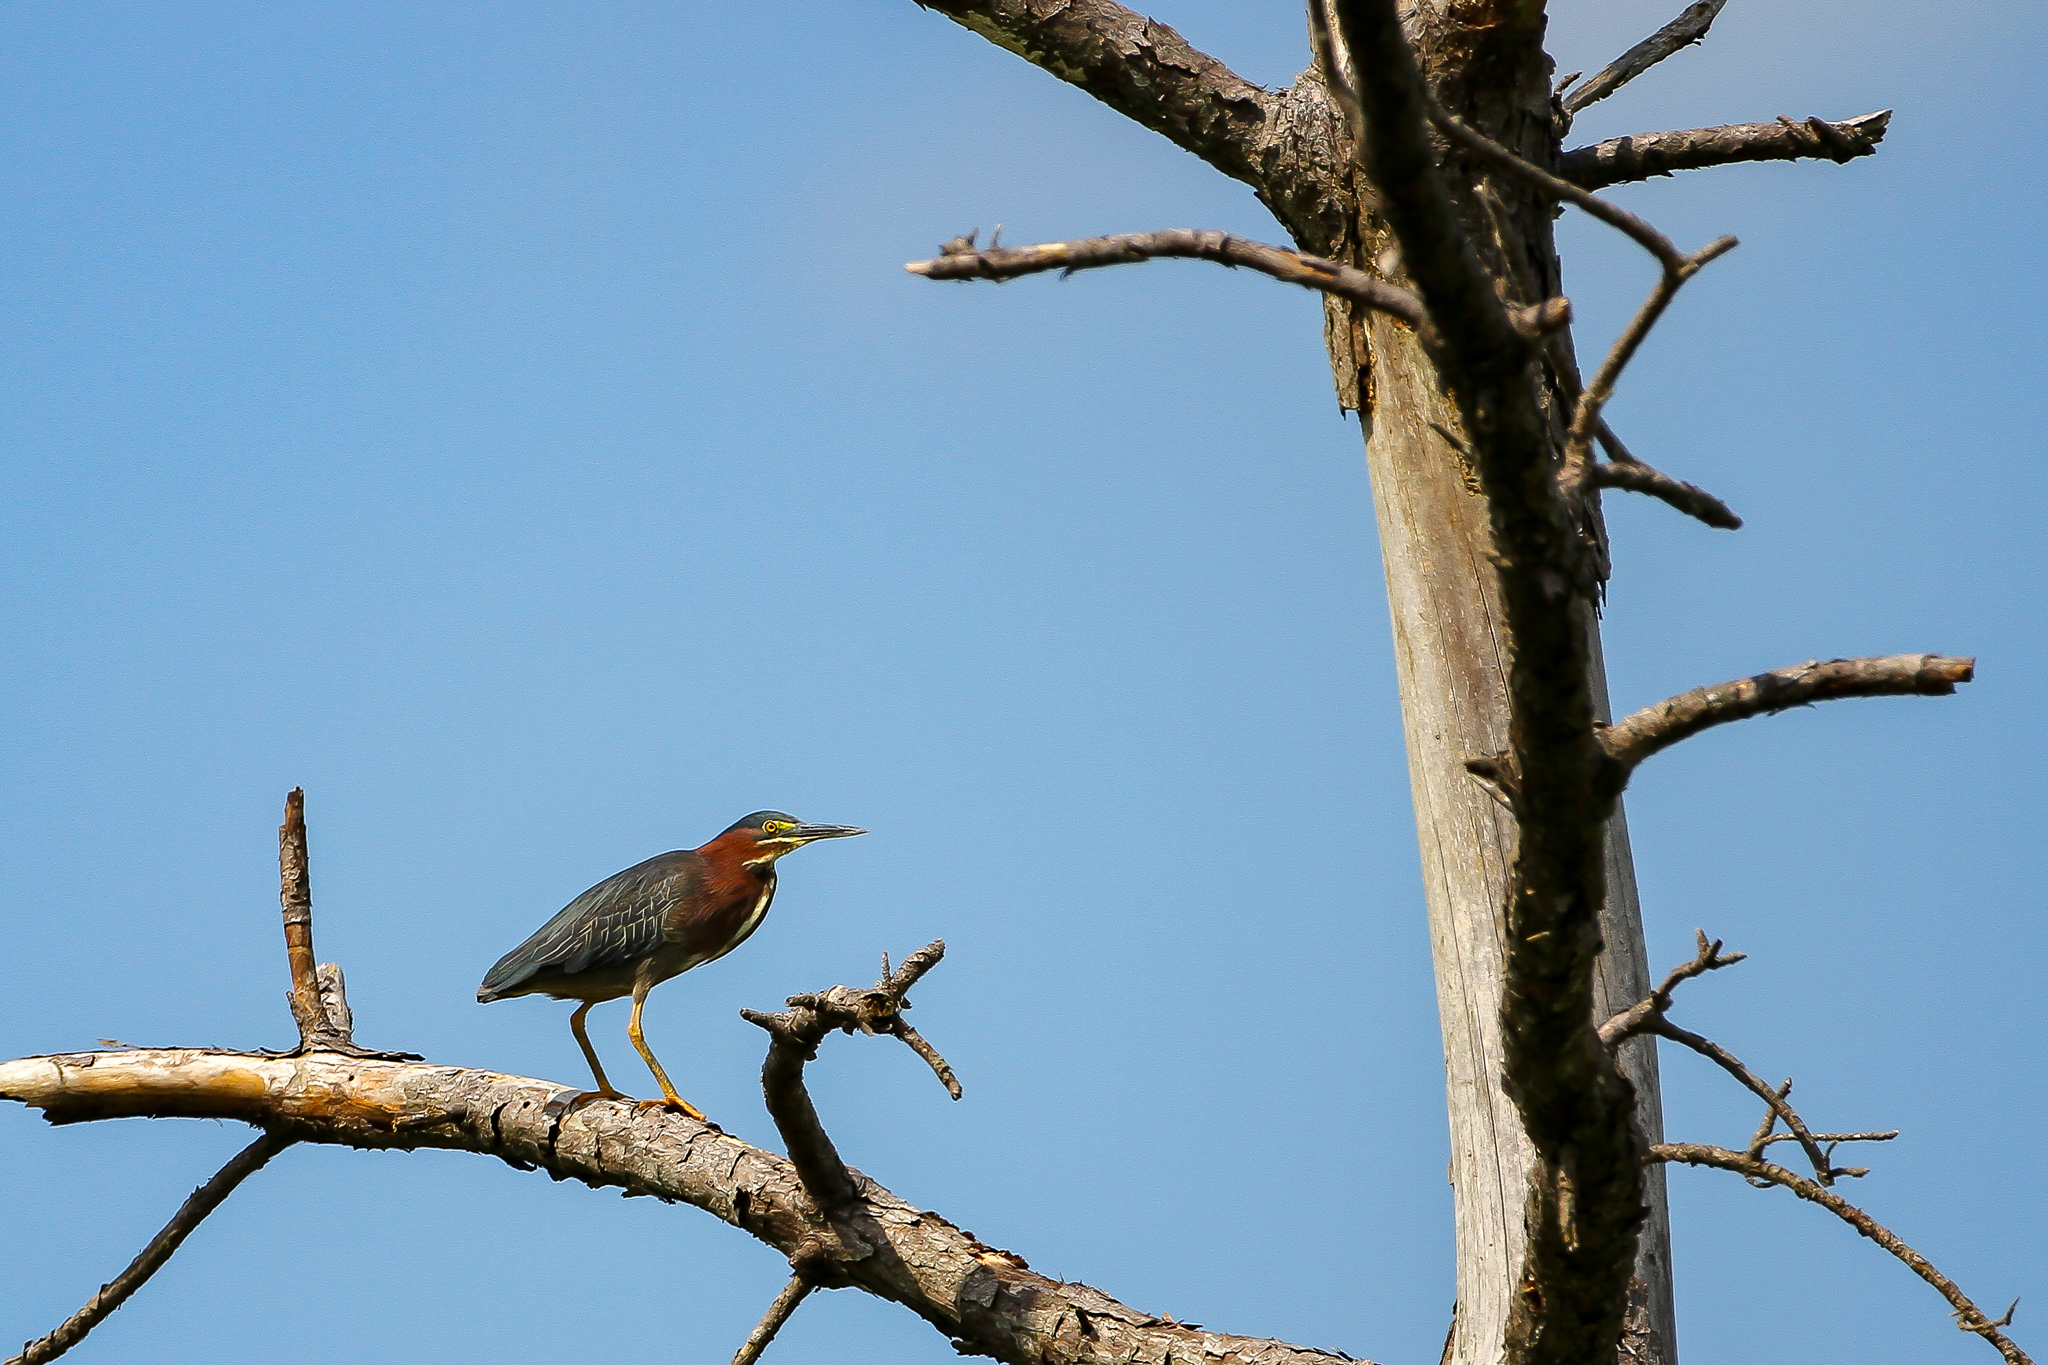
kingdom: Animalia
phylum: Chordata
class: Aves
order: Pelecaniformes
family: Ardeidae
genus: Butorides
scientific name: Butorides virescens
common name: Green heron
